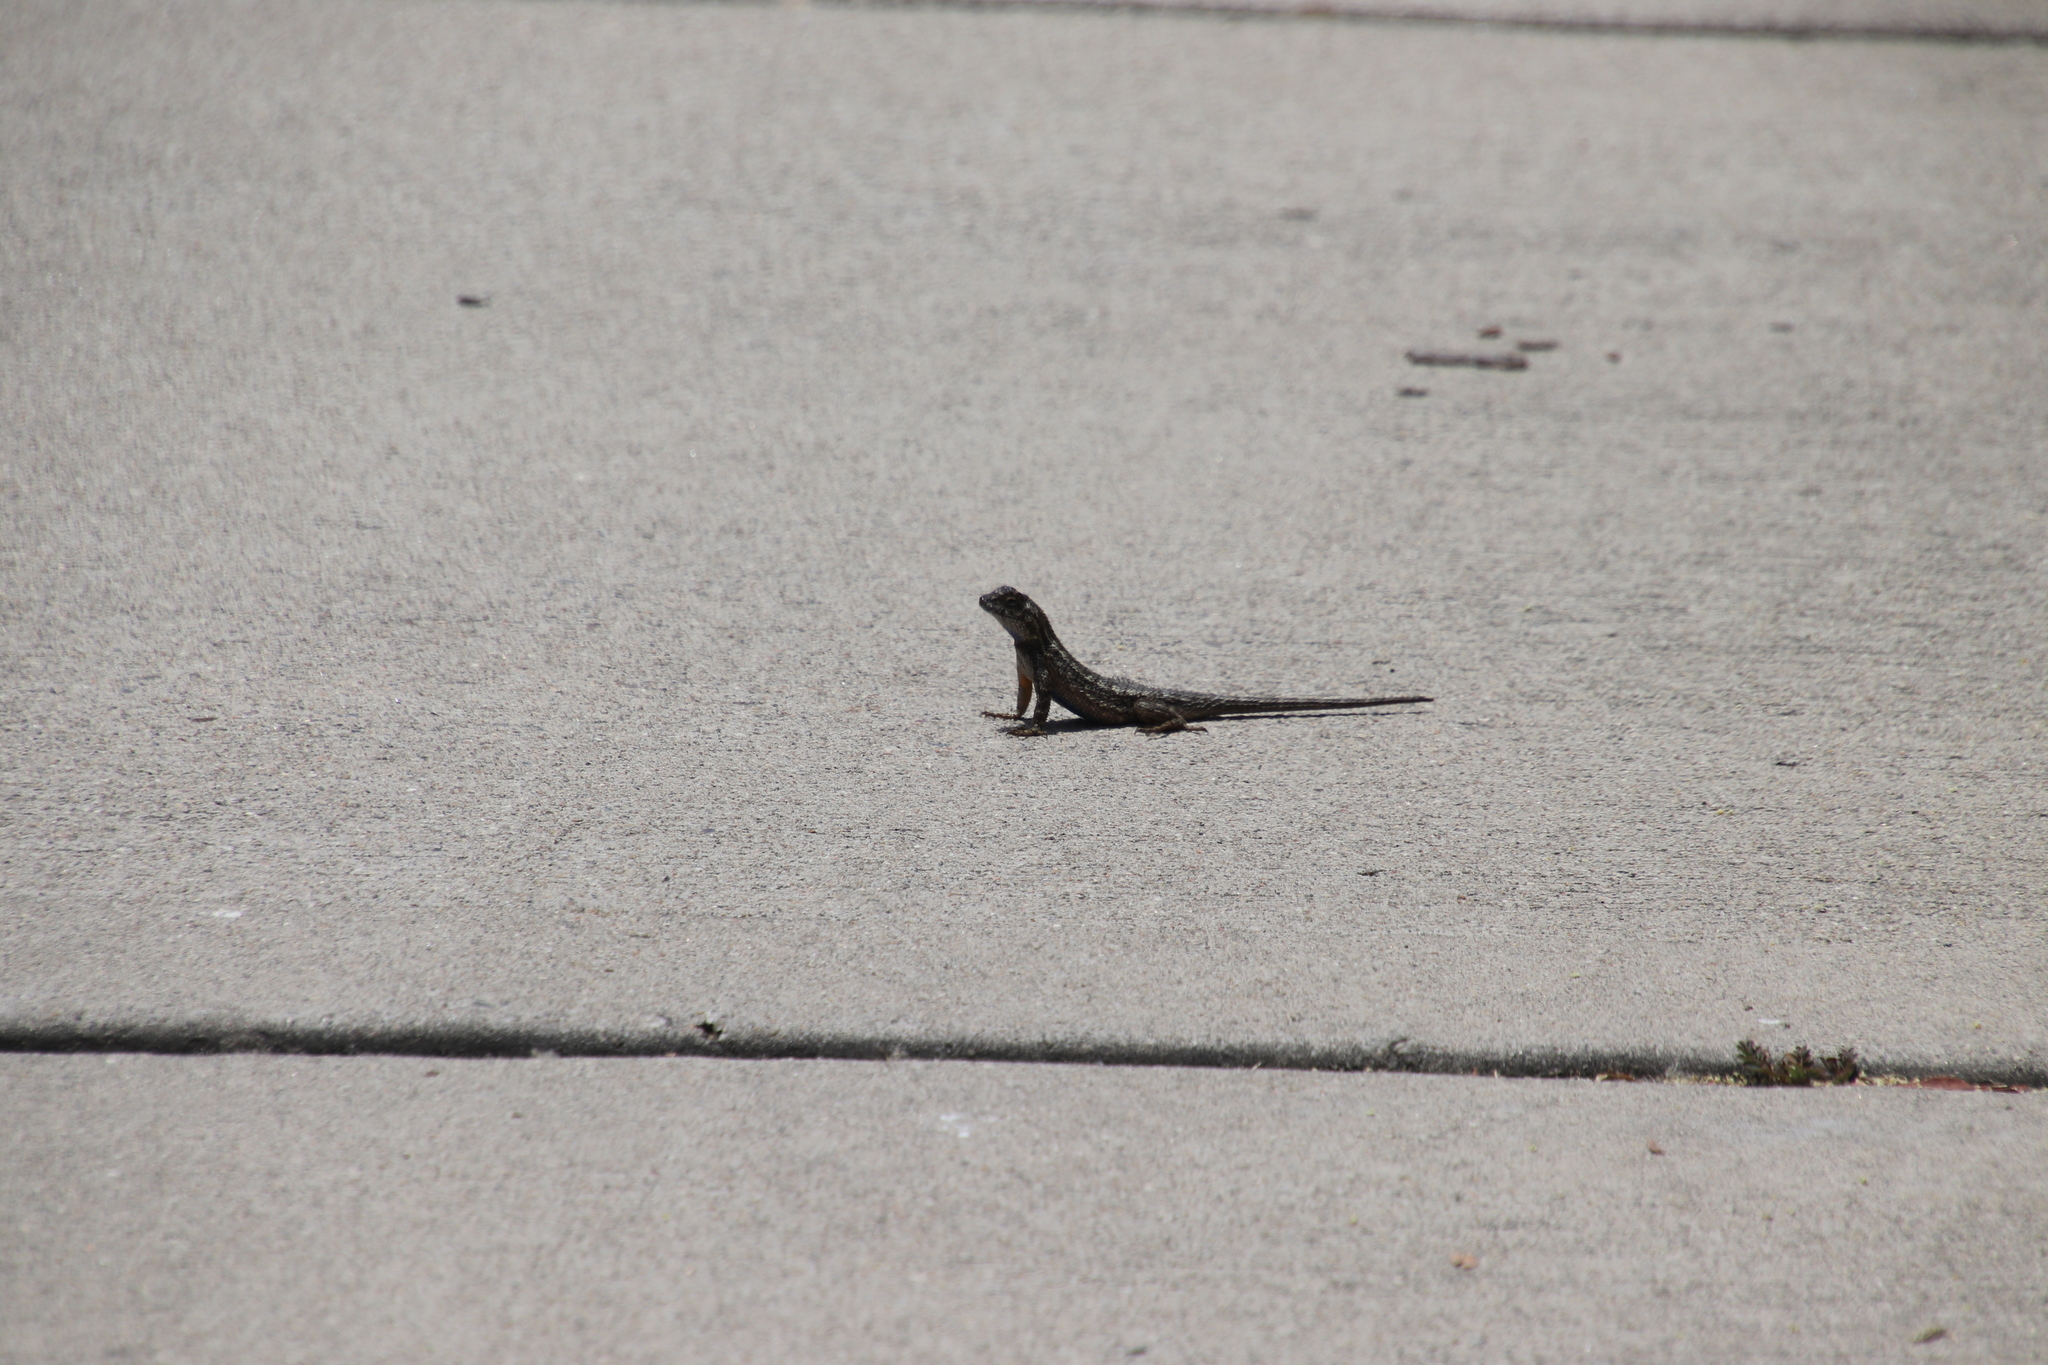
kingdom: Animalia
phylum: Chordata
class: Squamata
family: Phrynosomatidae
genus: Sceloporus
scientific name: Sceloporus occidentalis
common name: Western fence lizard
